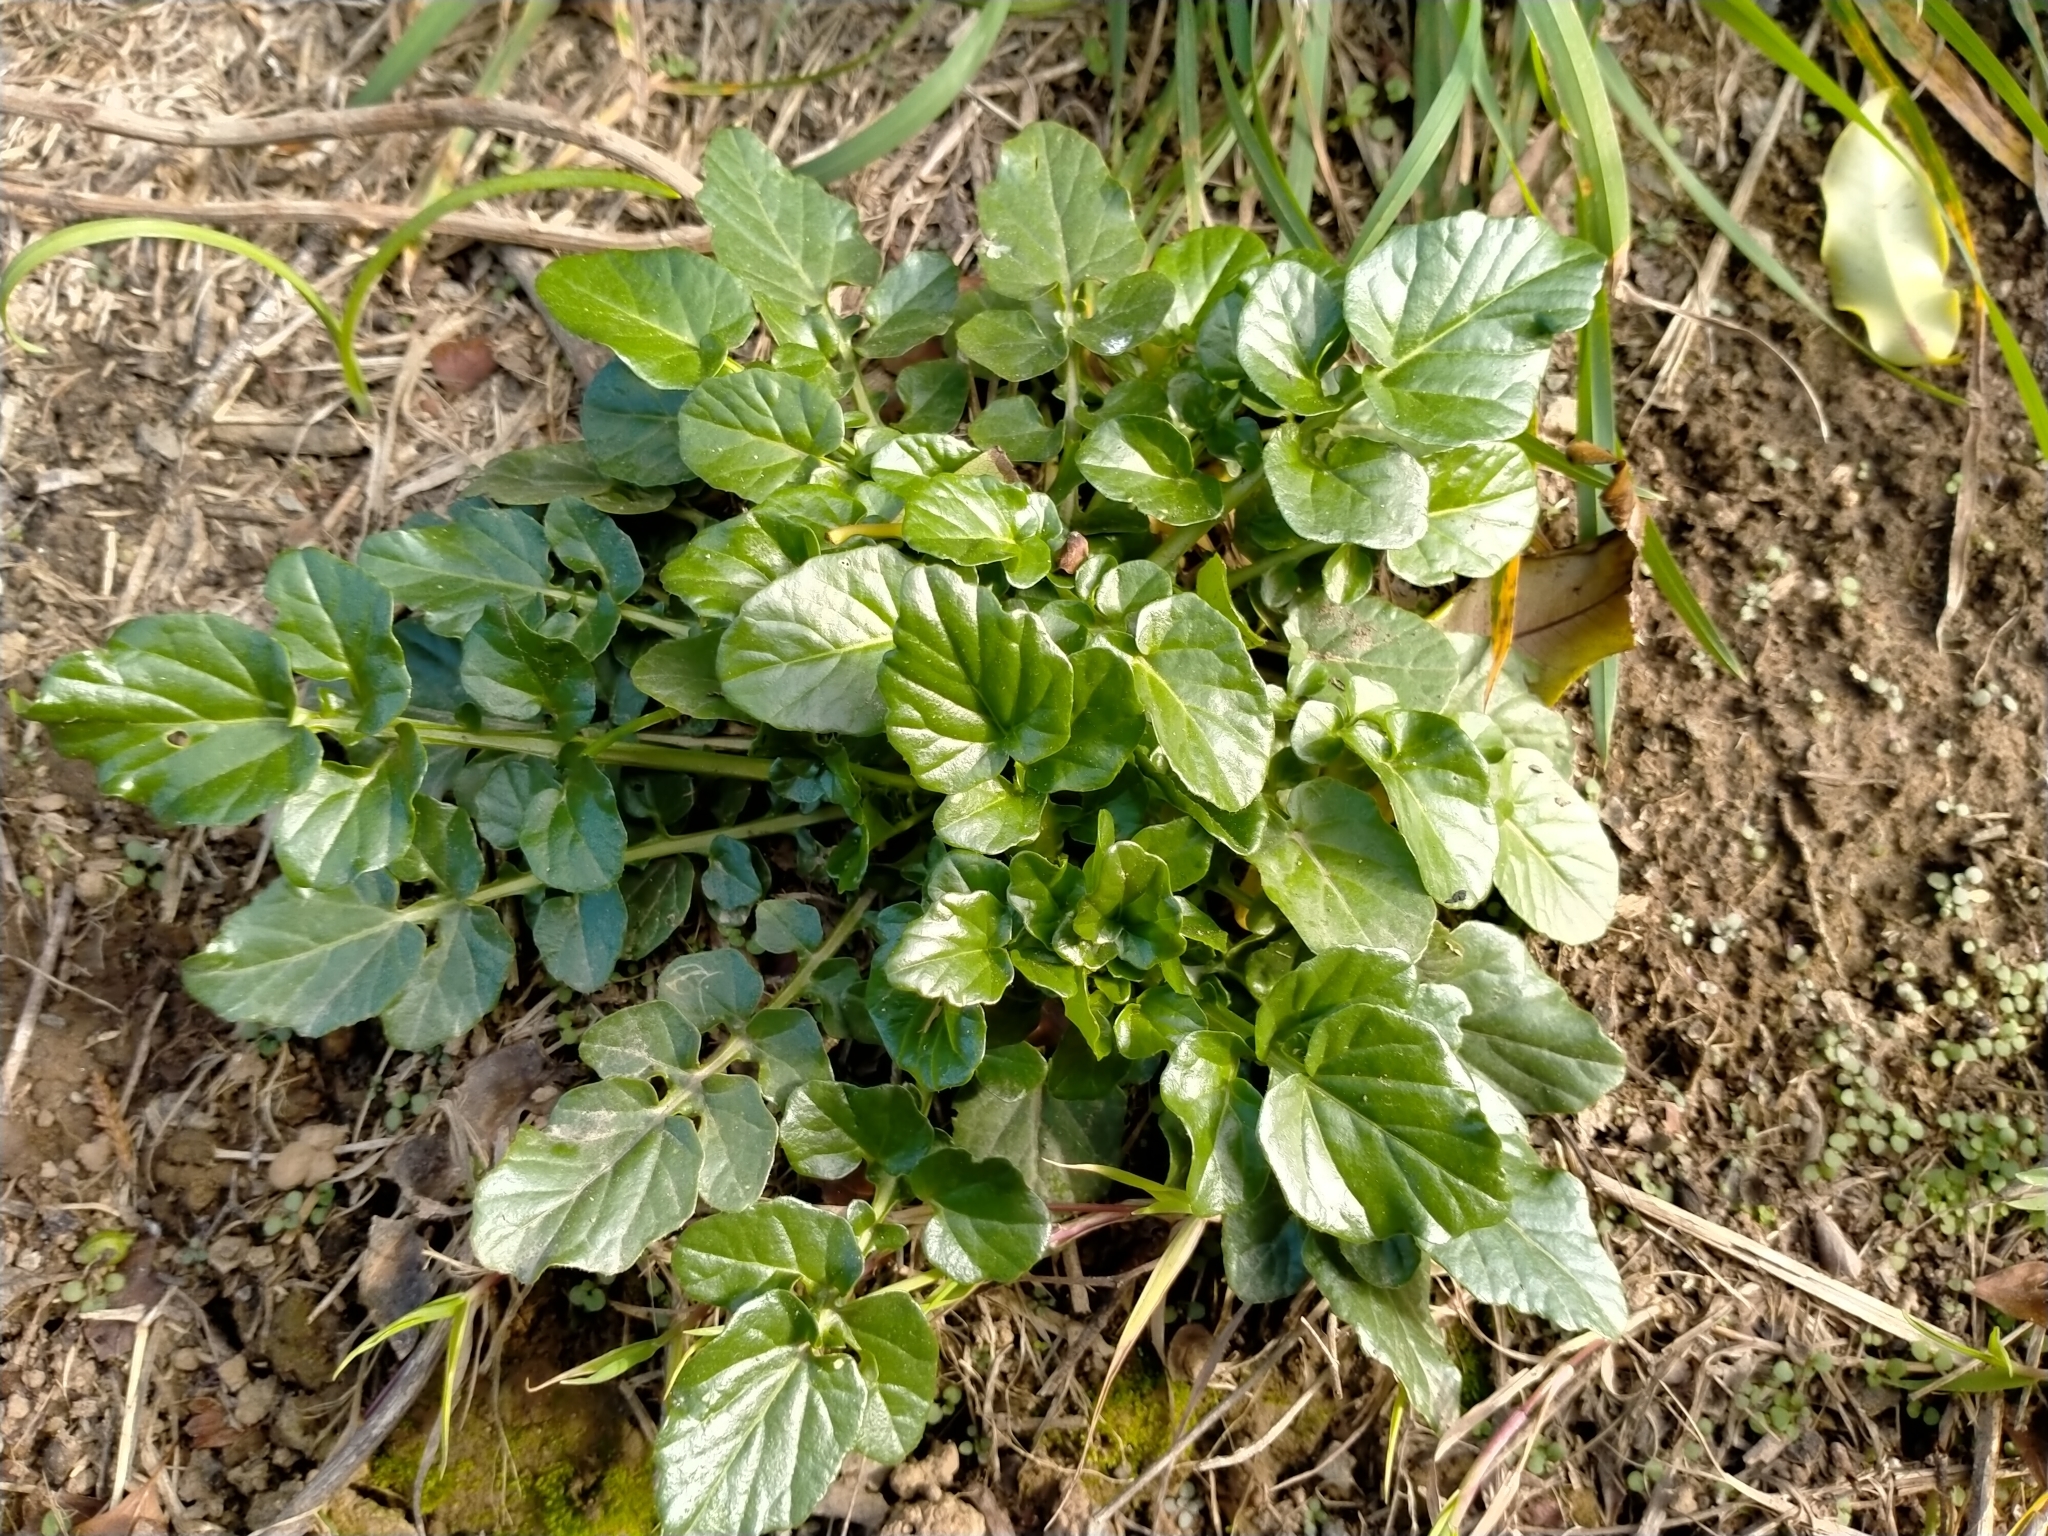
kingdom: Plantae
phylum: Tracheophyta
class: Magnoliopsida
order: Brassicales
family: Brassicaceae
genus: Barbarea
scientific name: Barbarea intermedia
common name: Medium-flowered winter-cress
